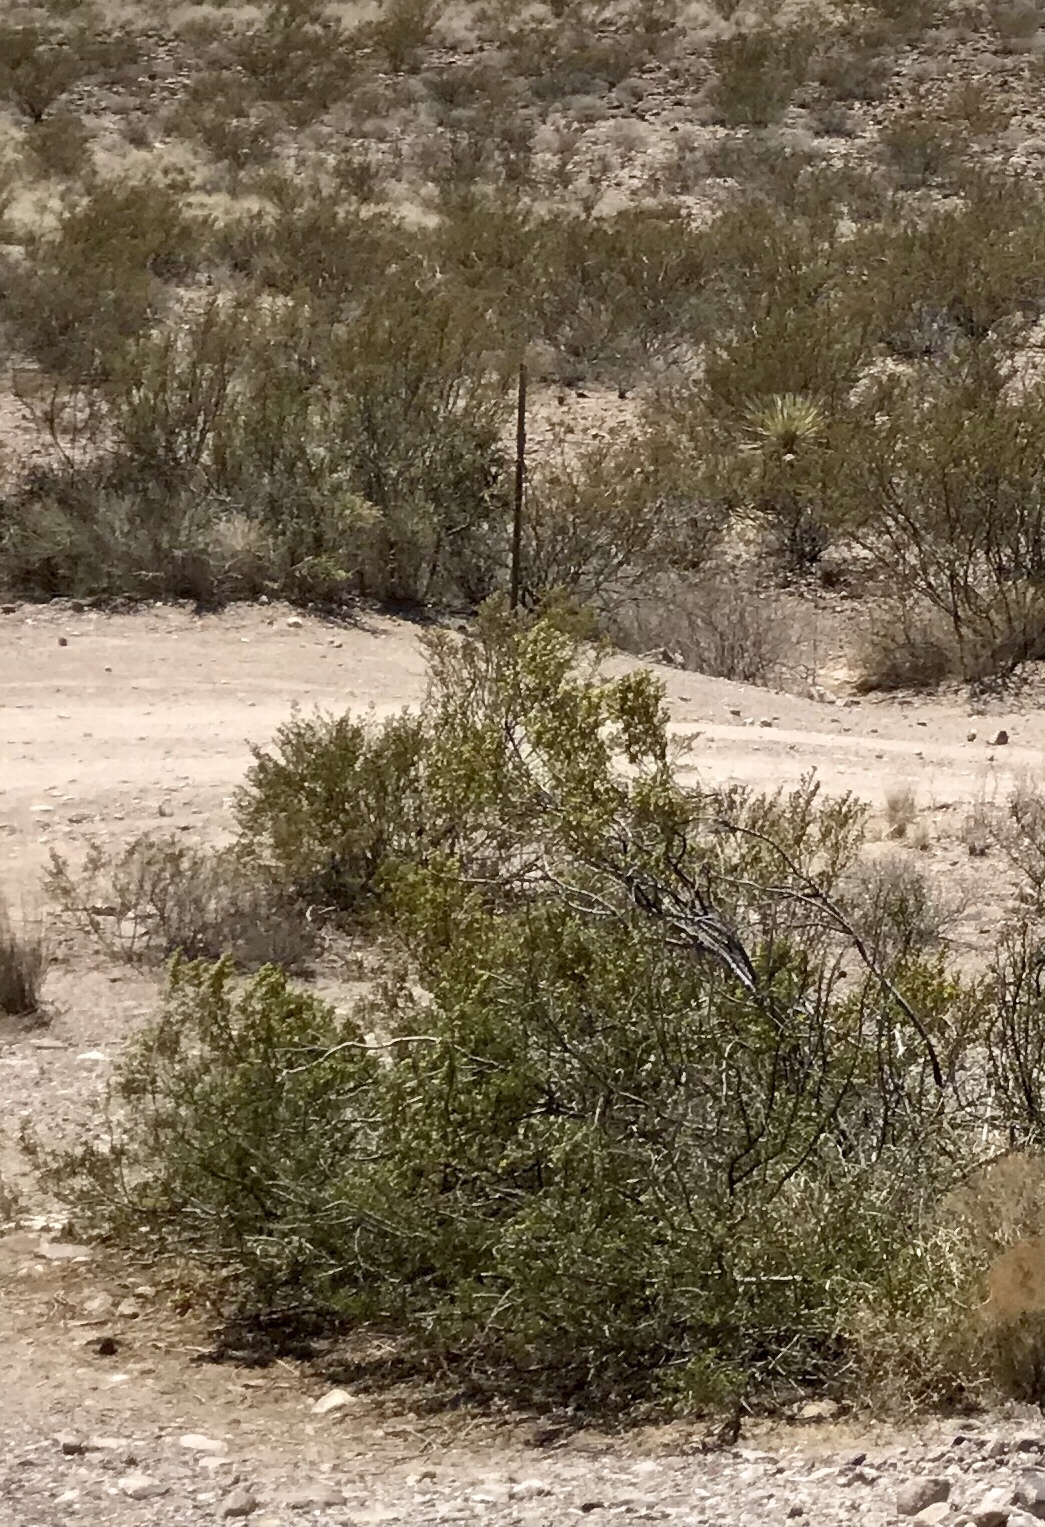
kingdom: Plantae
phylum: Tracheophyta
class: Magnoliopsida
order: Zygophyllales
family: Zygophyllaceae
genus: Larrea
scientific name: Larrea tridentata
